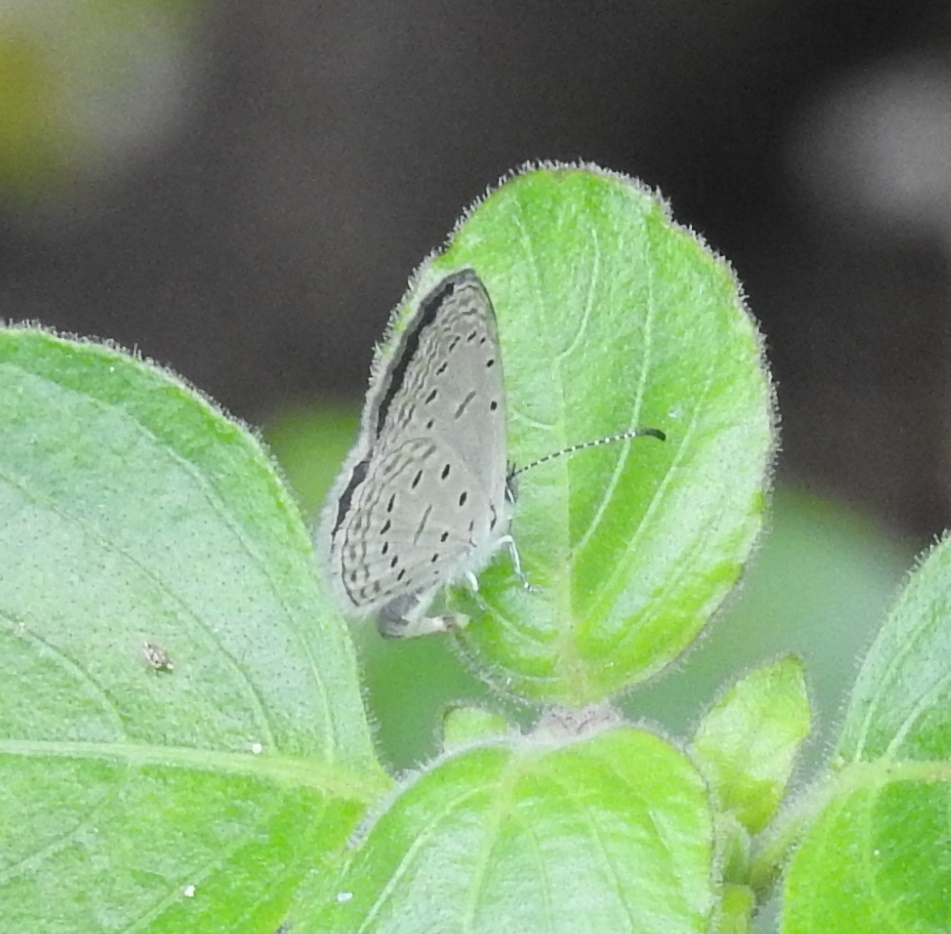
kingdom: Animalia
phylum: Arthropoda
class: Insecta
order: Lepidoptera
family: Lycaenidae
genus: Zizula
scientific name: Zizula hylax
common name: Gaika blue
